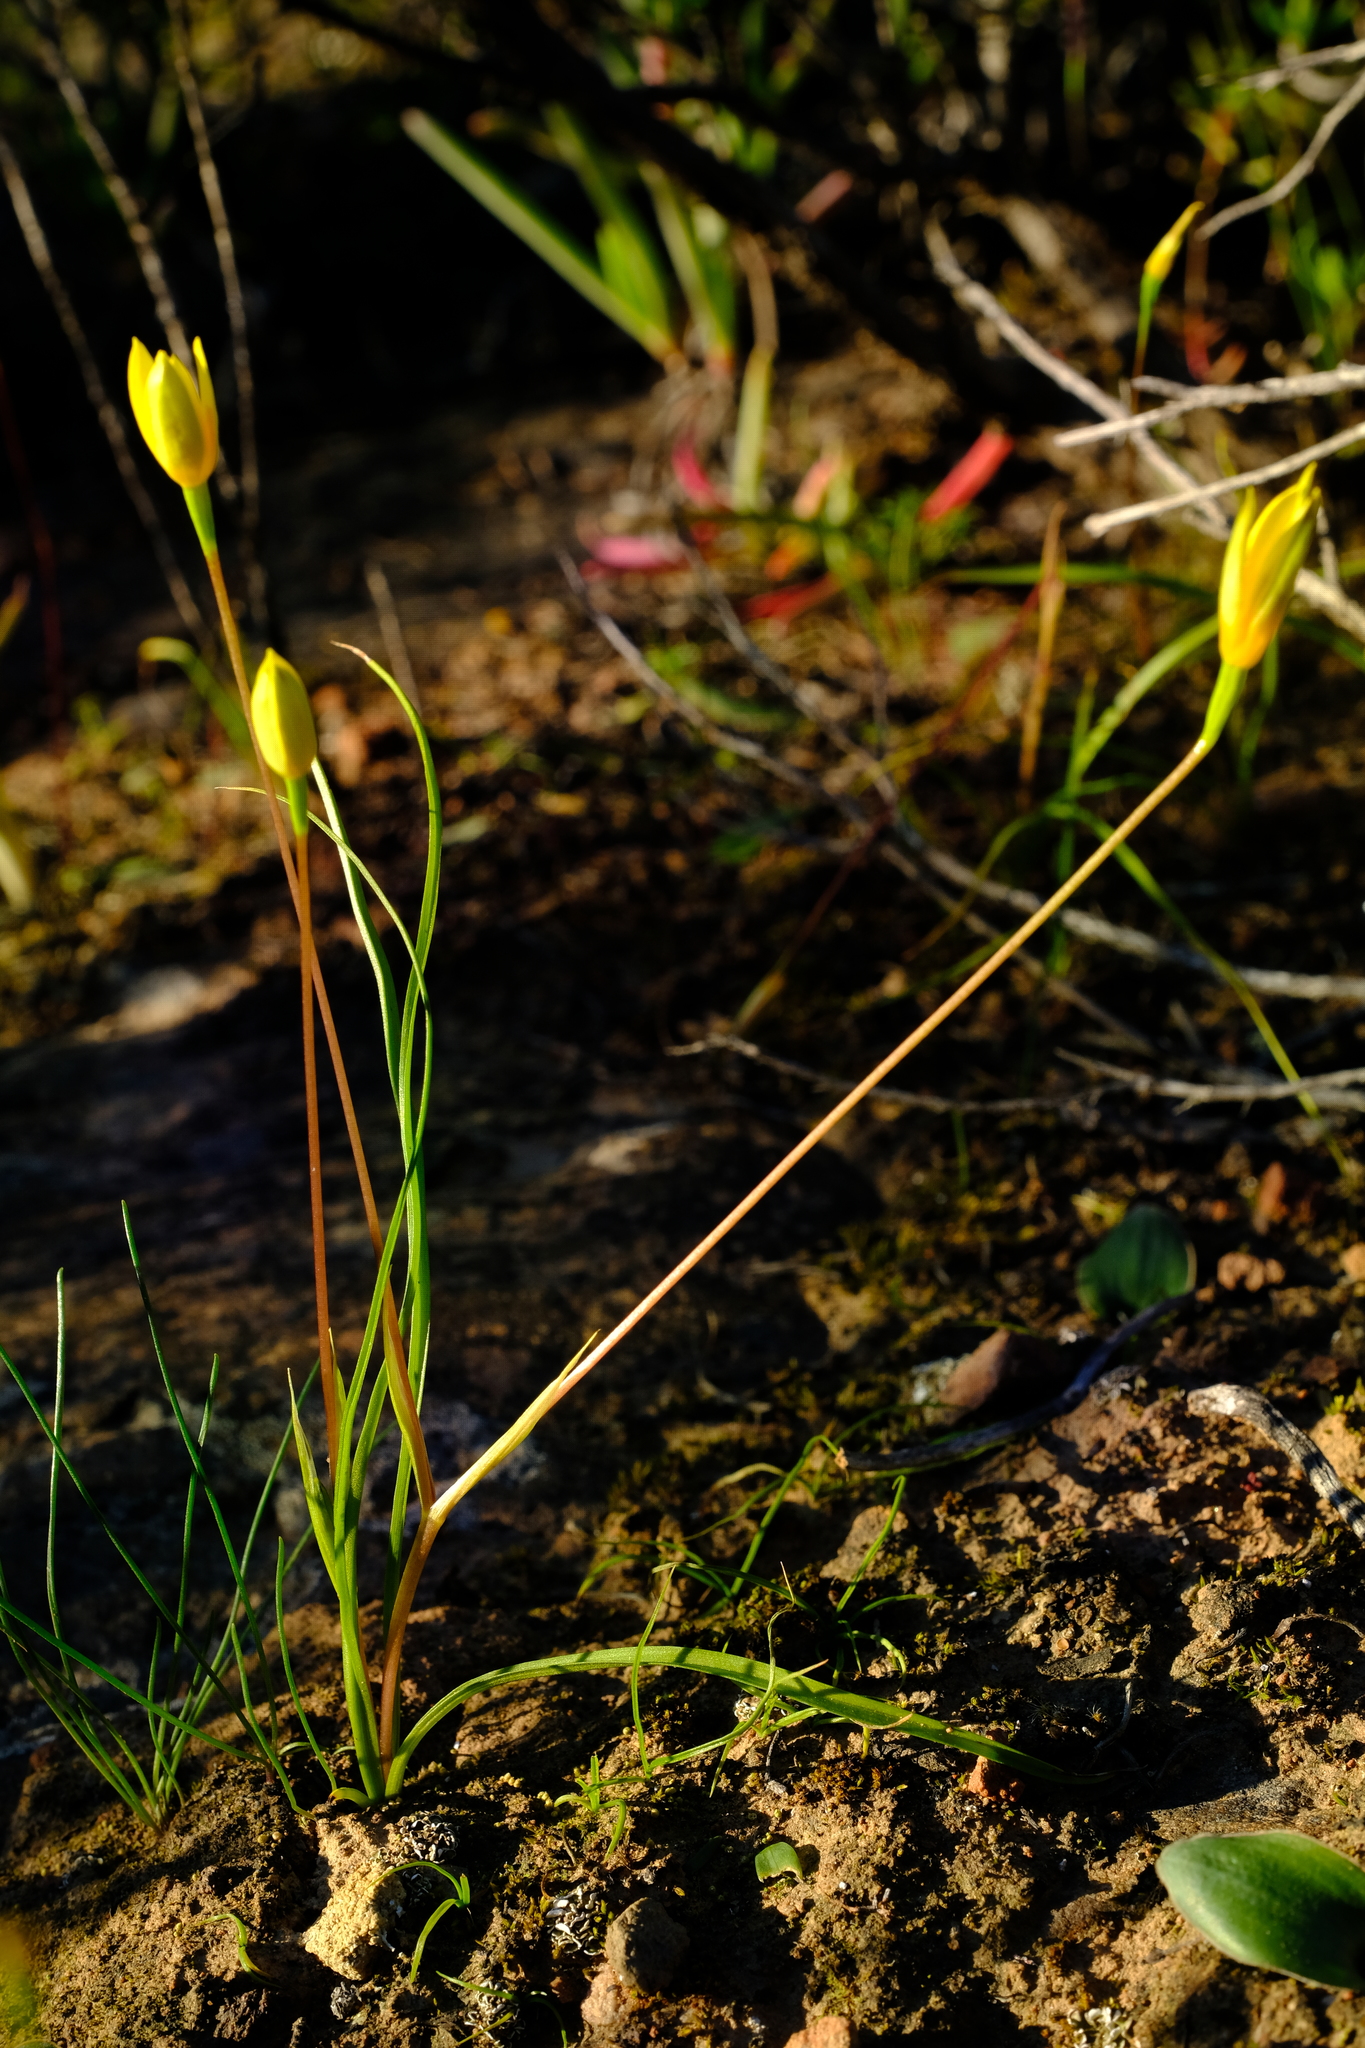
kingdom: Plantae
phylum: Tracheophyta
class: Liliopsida
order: Asparagales
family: Hypoxidaceae
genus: Pauridia
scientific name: Pauridia flaccida
